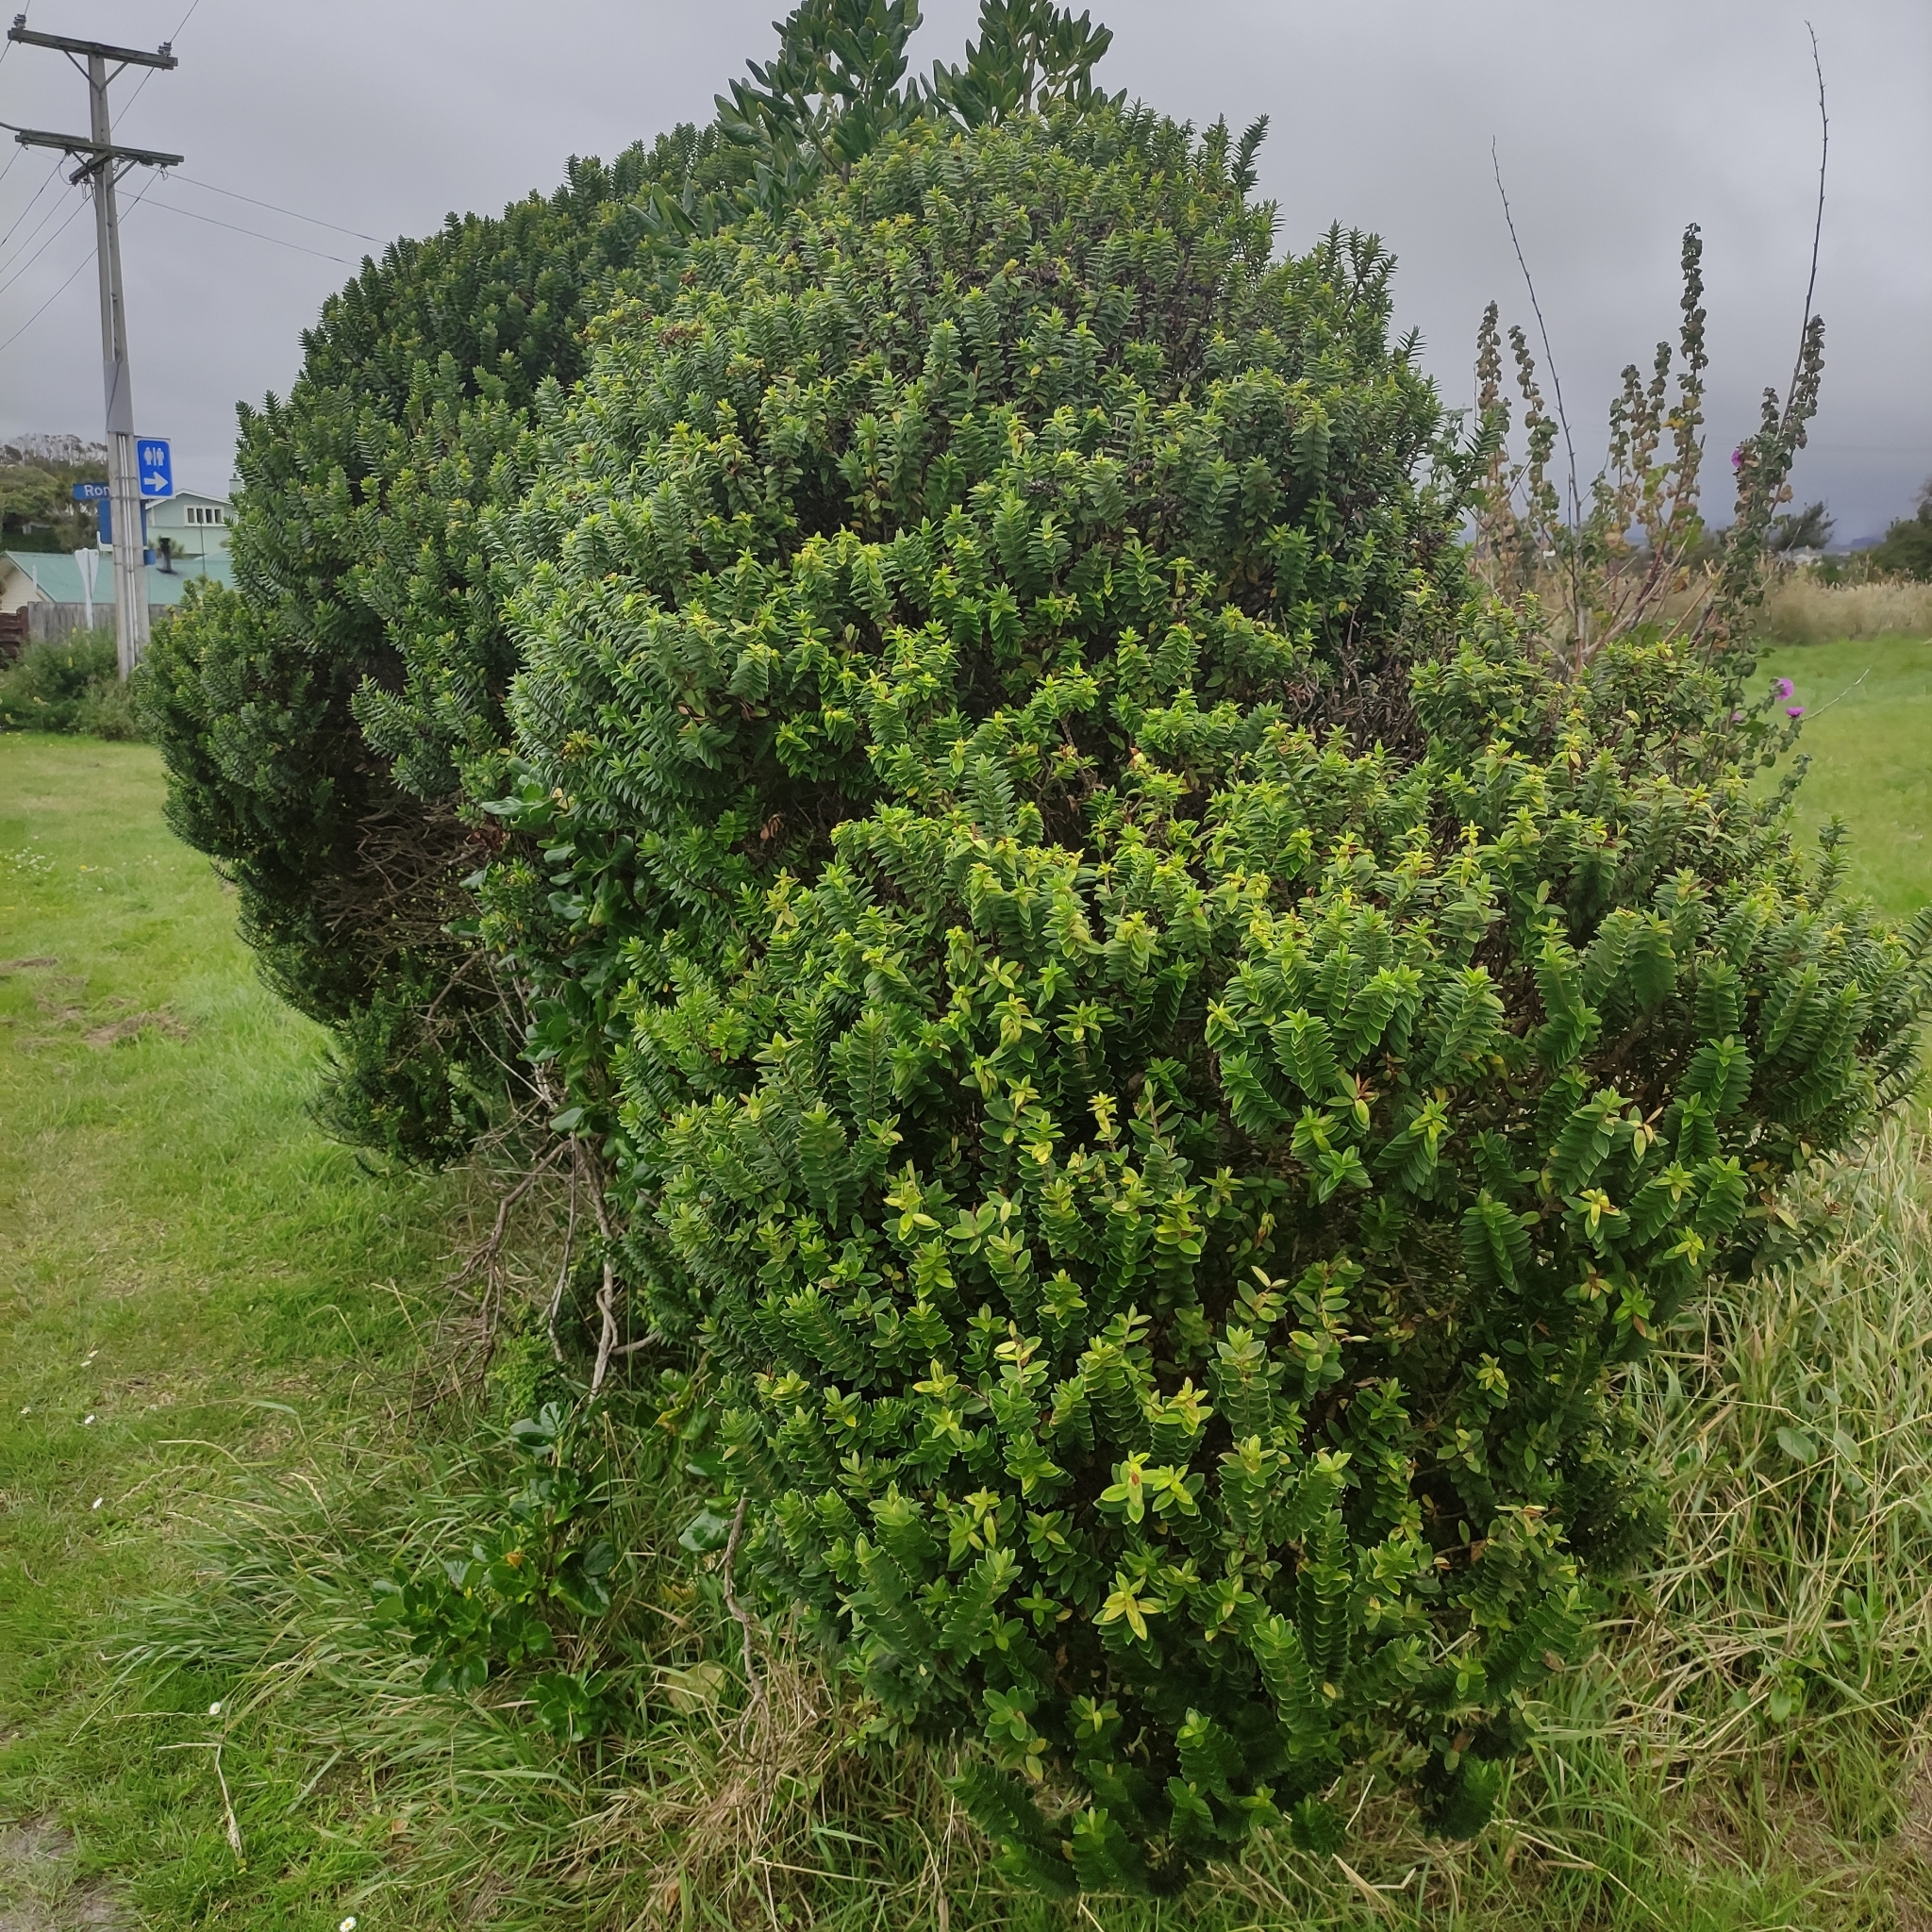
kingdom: Plantae
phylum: Tracheophyta
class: Magnoliopsida
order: Lamiales
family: Plantaginaceae
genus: Veronica
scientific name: Veronica elliptica
